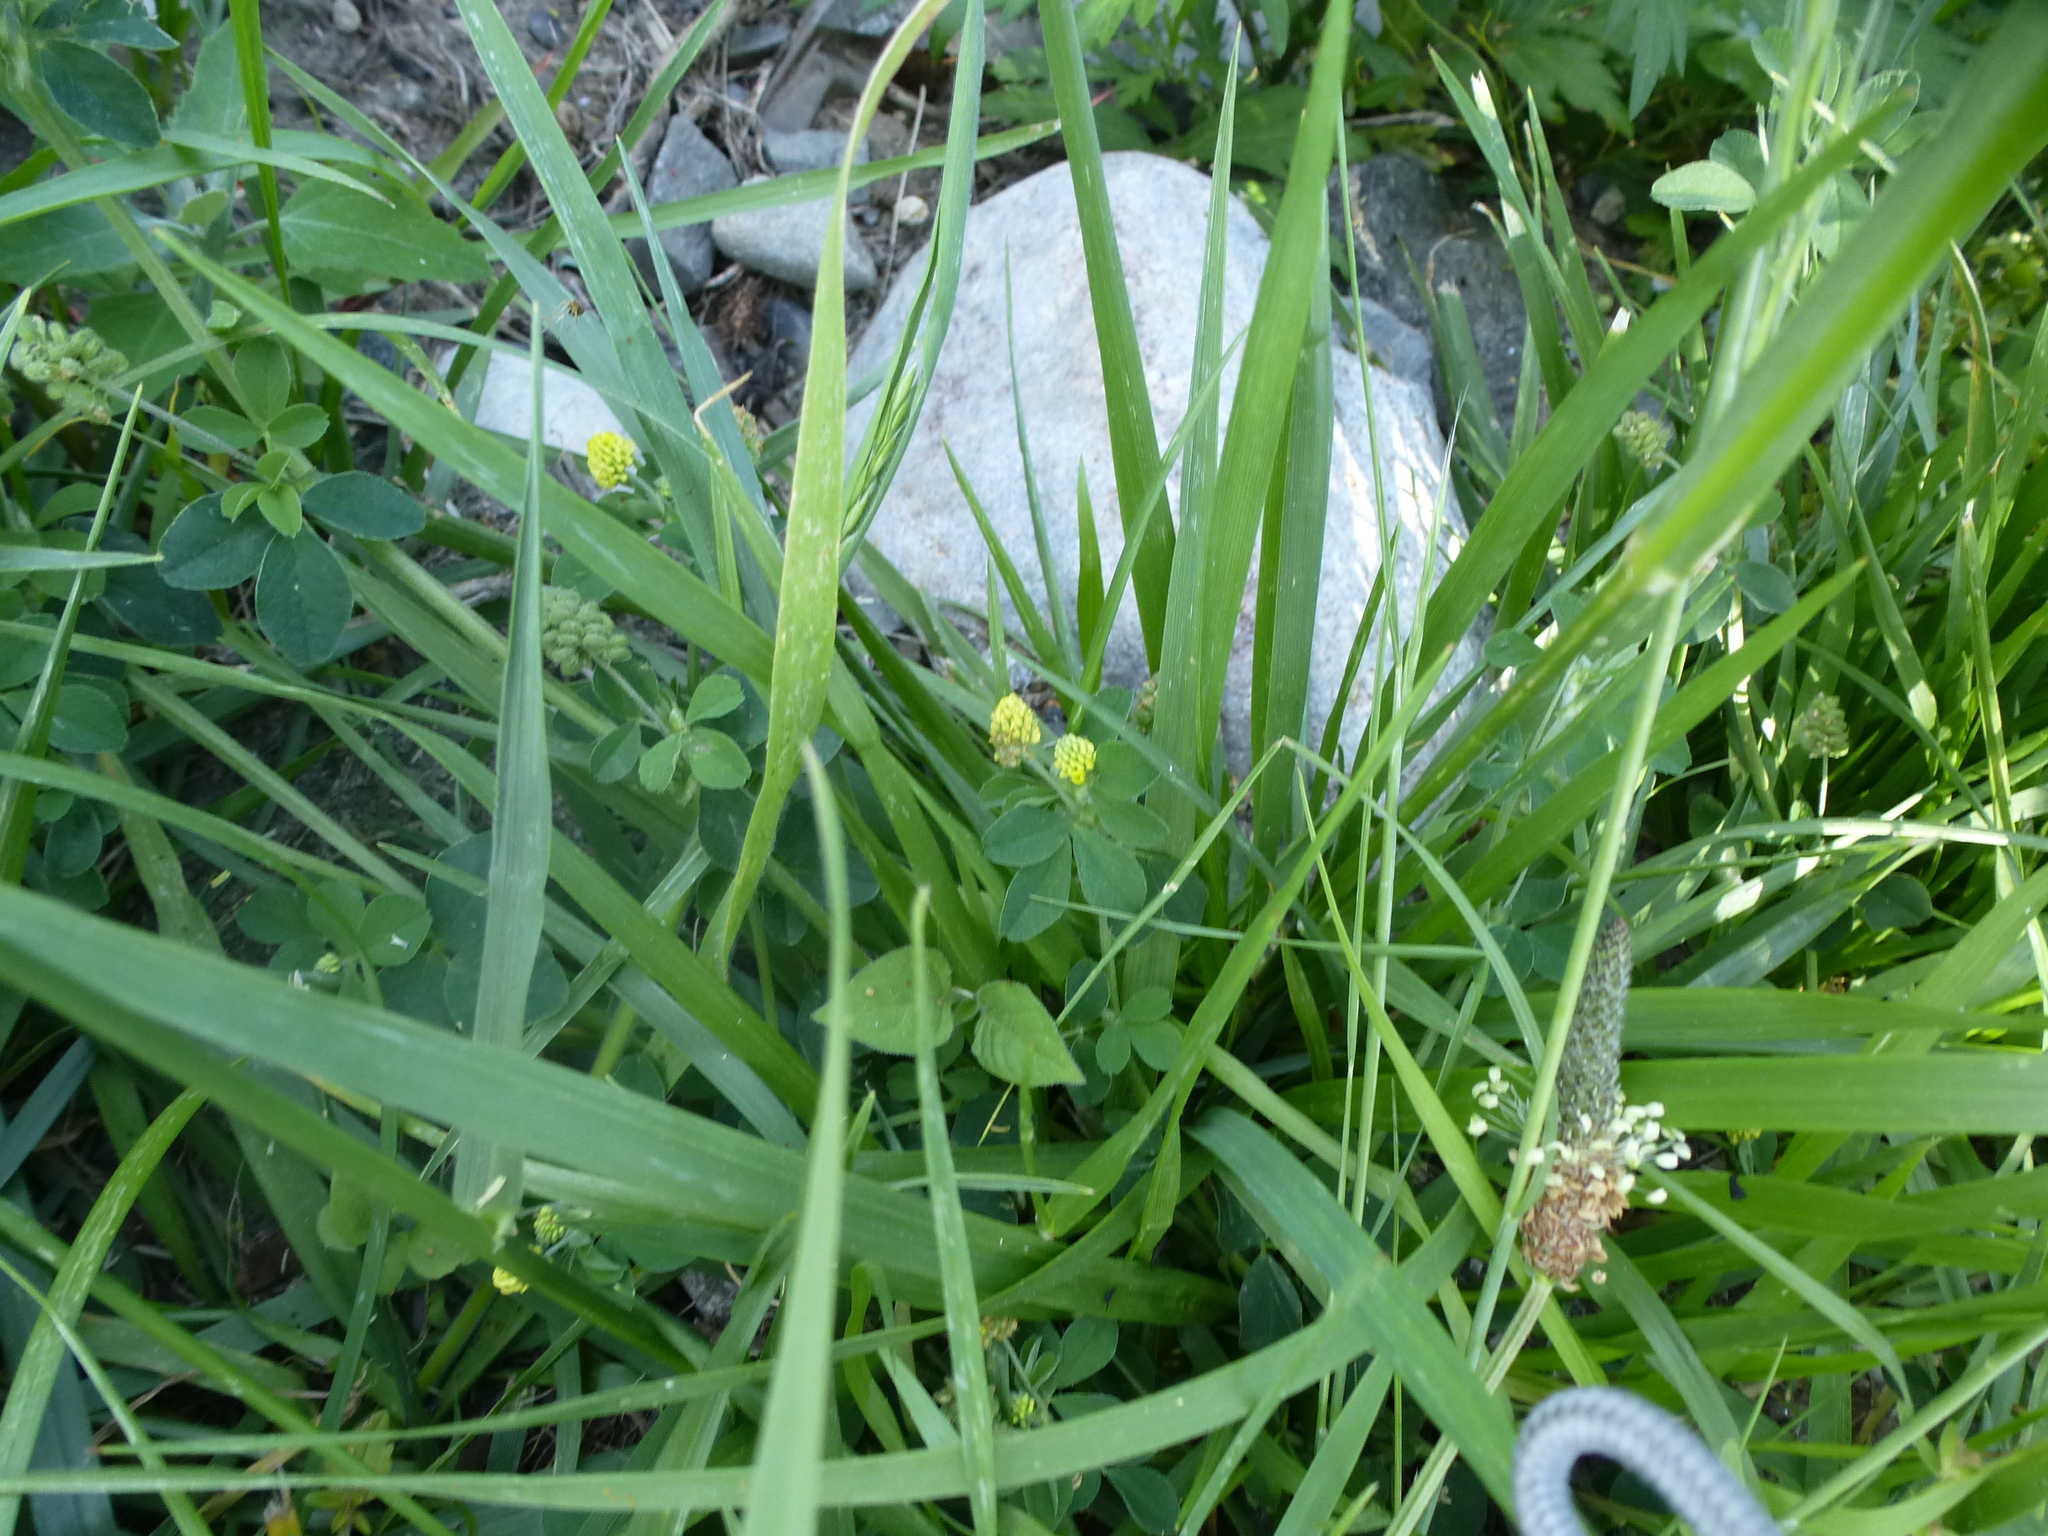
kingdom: Plantae
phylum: Tracheophyta
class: Magnoliopsida
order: Fabales
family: Fabaceae
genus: Medicago
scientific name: Medicago lupulina
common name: Black medick
